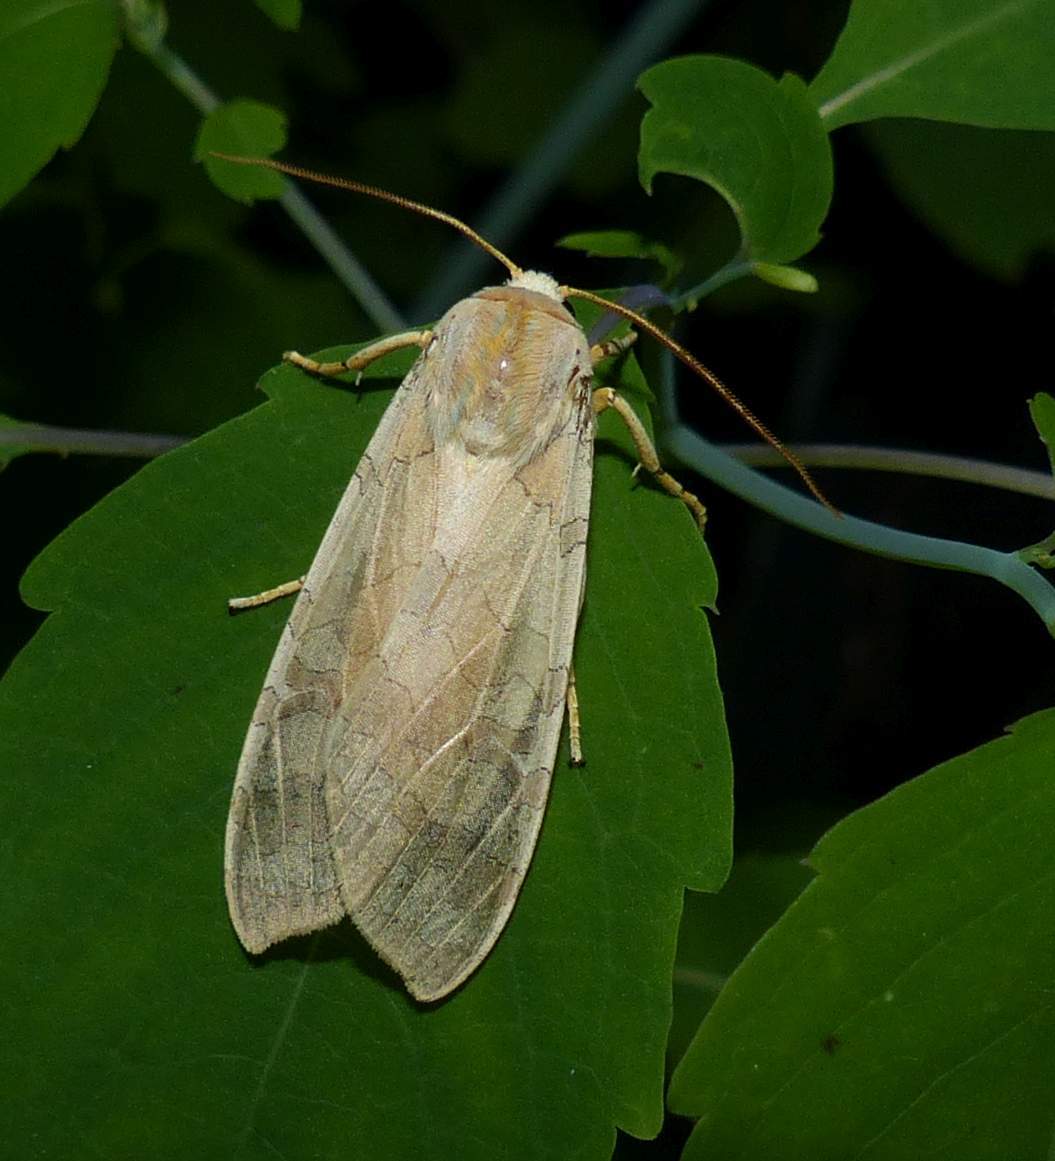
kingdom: Animalia
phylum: Arthropoda
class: Insecta
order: Lepidoptera
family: Erebidae
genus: Halysidota
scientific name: Halysidota tessellaris
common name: Banded tussock moth
